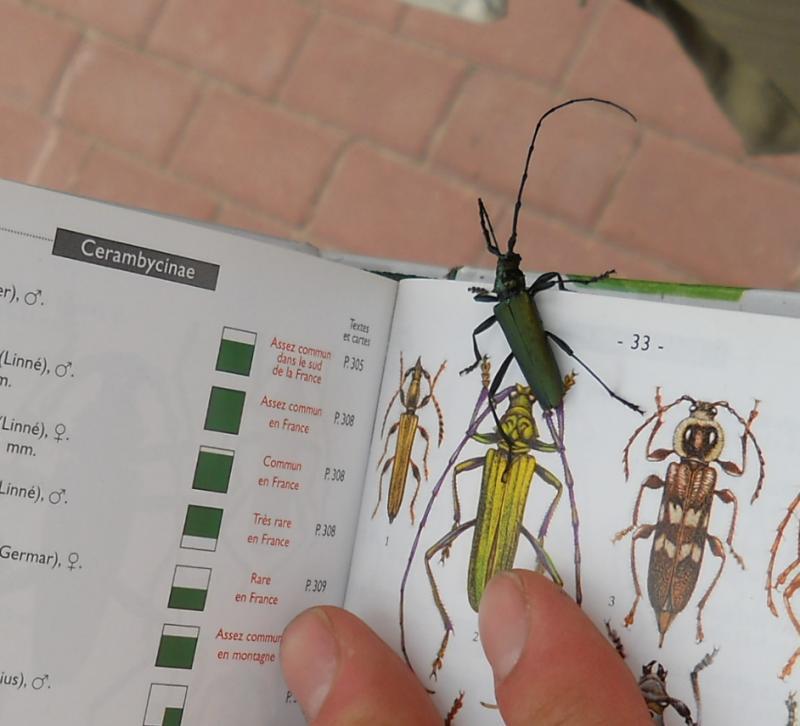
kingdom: Animalia
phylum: Arthropoda
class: Insecta
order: Coleoptera
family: Cerambycidae
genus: Aromia
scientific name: Aromia moschata
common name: Musk beetle
